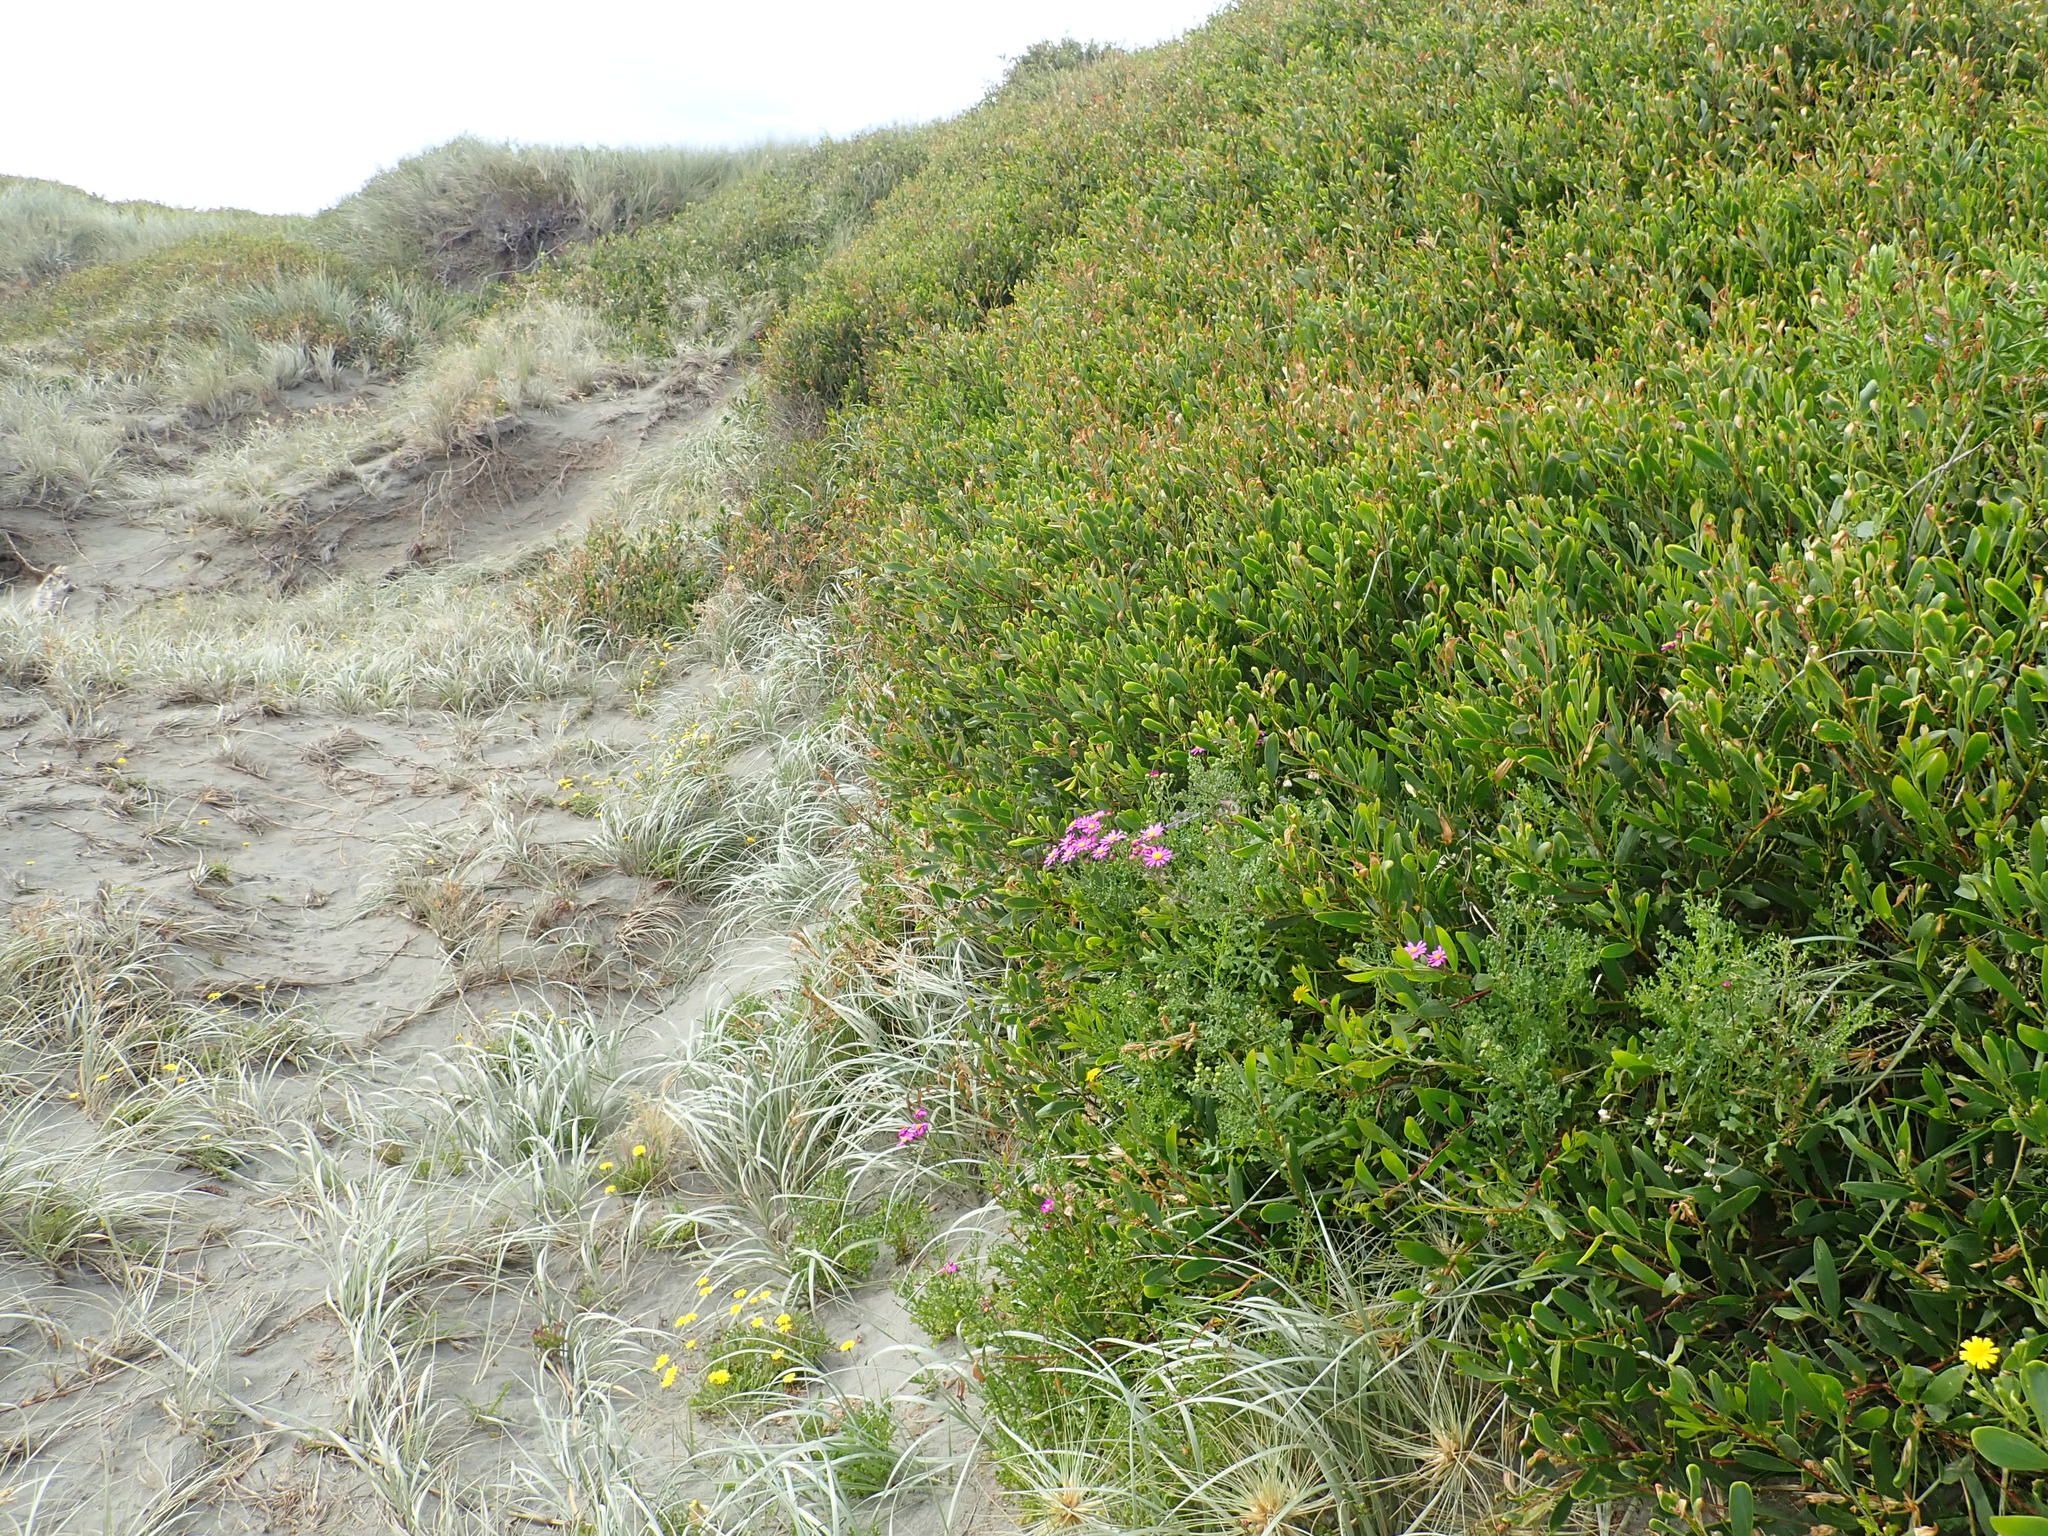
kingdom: Plantae
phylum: Tracheophyta
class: Magnoliopsida
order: Asterales
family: Asteraceae
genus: Senecio
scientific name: Senecio elegans
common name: Purple groundsel
